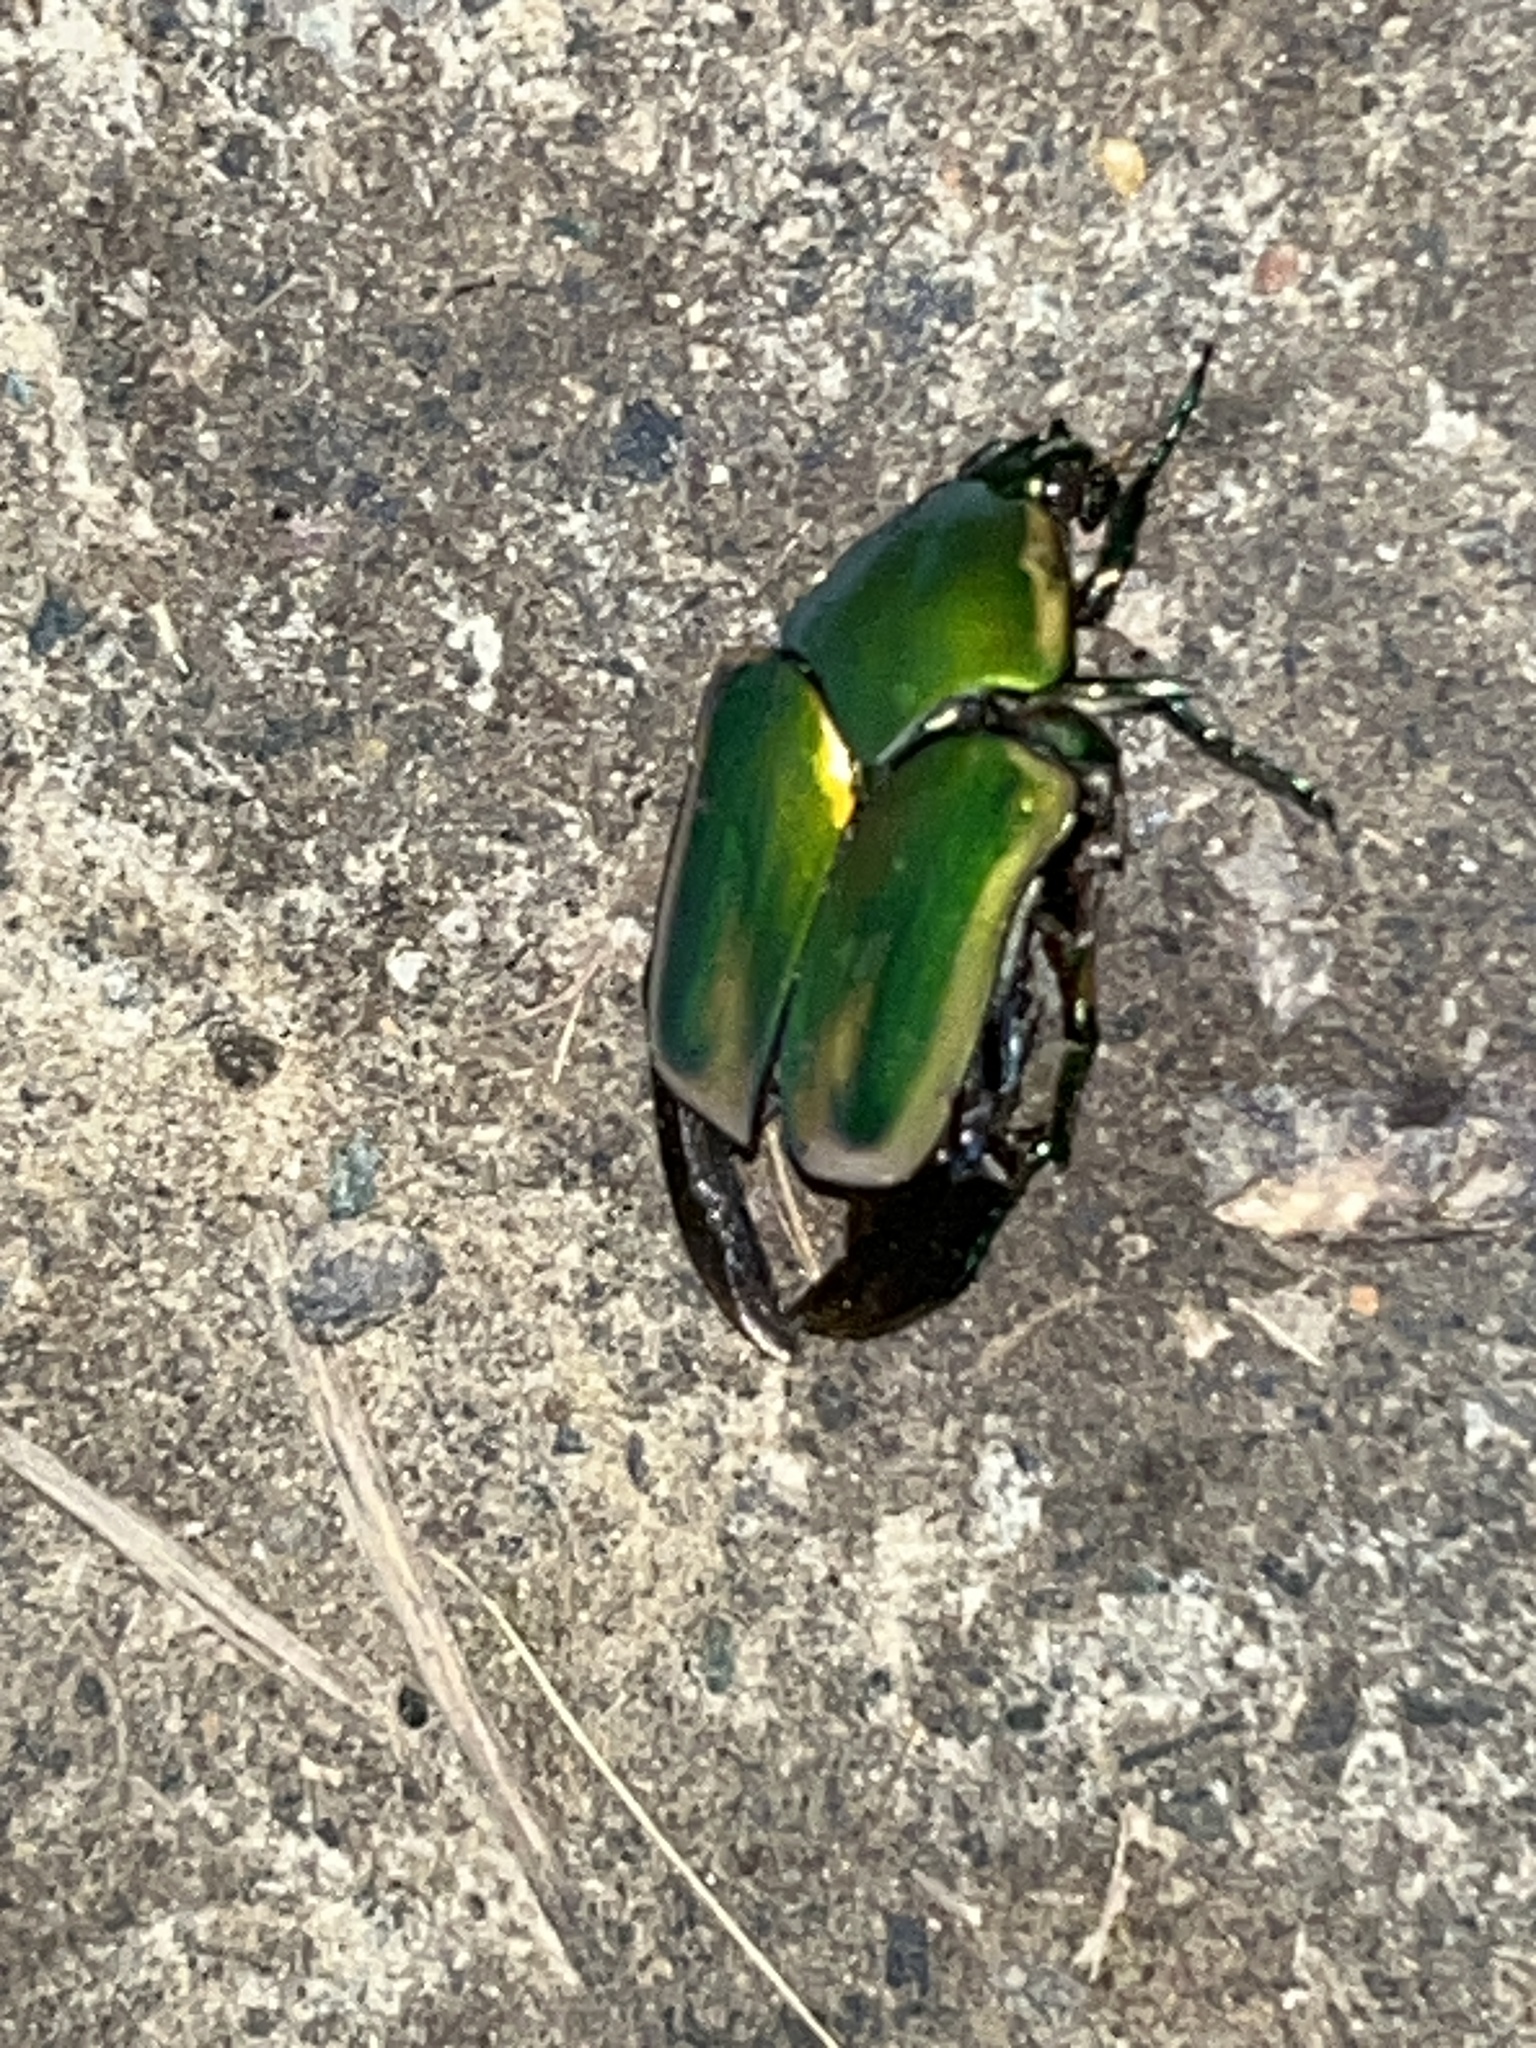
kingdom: Animalia
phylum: Arthropoda
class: Insecta
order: Coleoptera
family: Scarabaeidae
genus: Cotinis
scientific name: Cotinis nitida
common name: Common green june beetle
